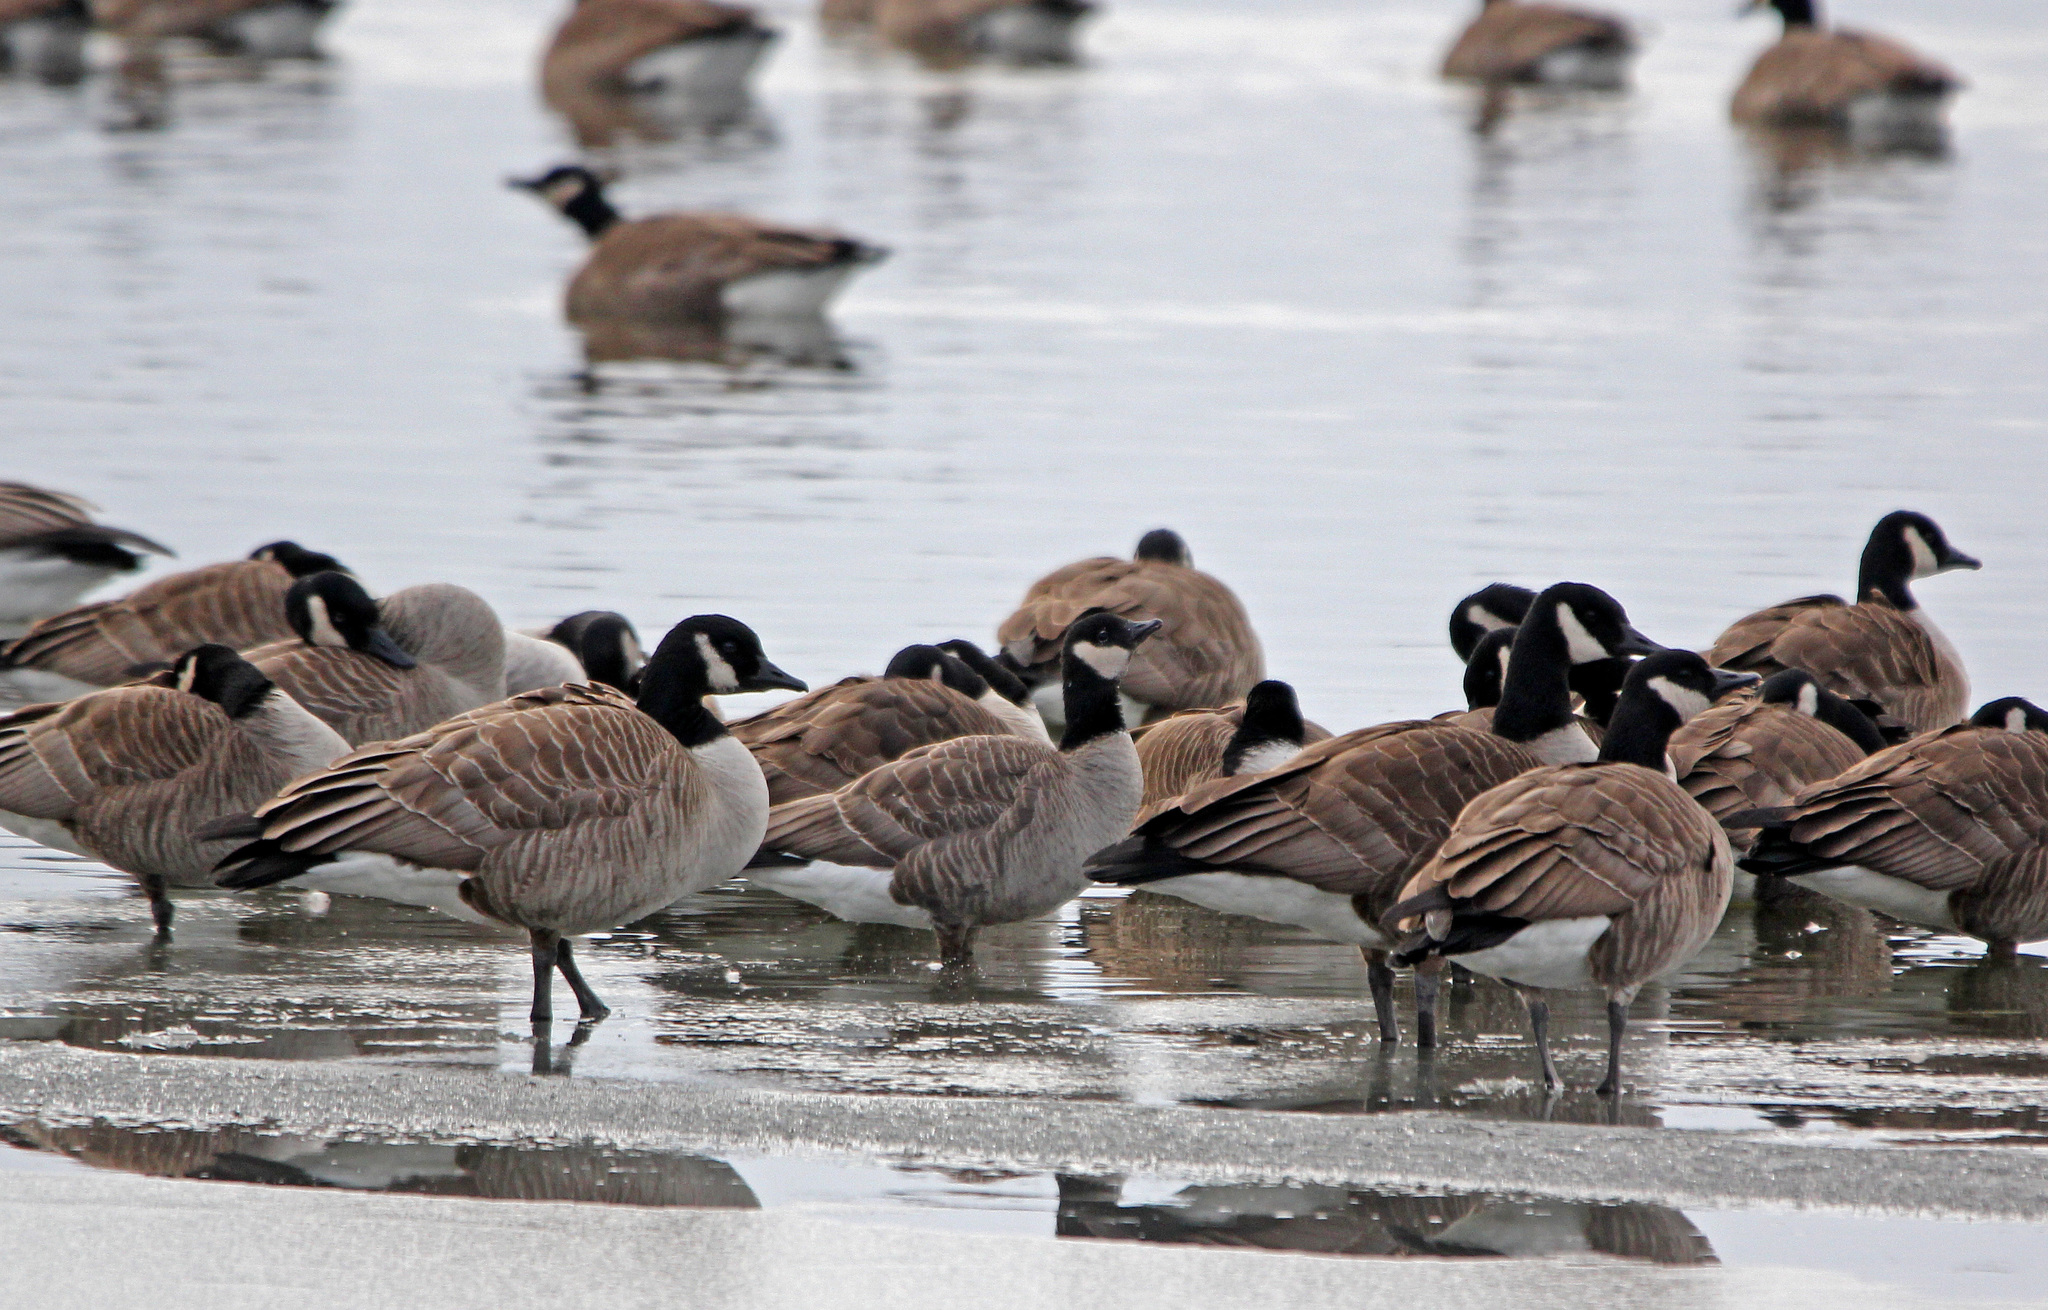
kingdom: Animalia
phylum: Chordata
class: Aves
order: Anseriformes
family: Anatidae
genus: Branta
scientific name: Branta hutchinsii
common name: Cackling goose
